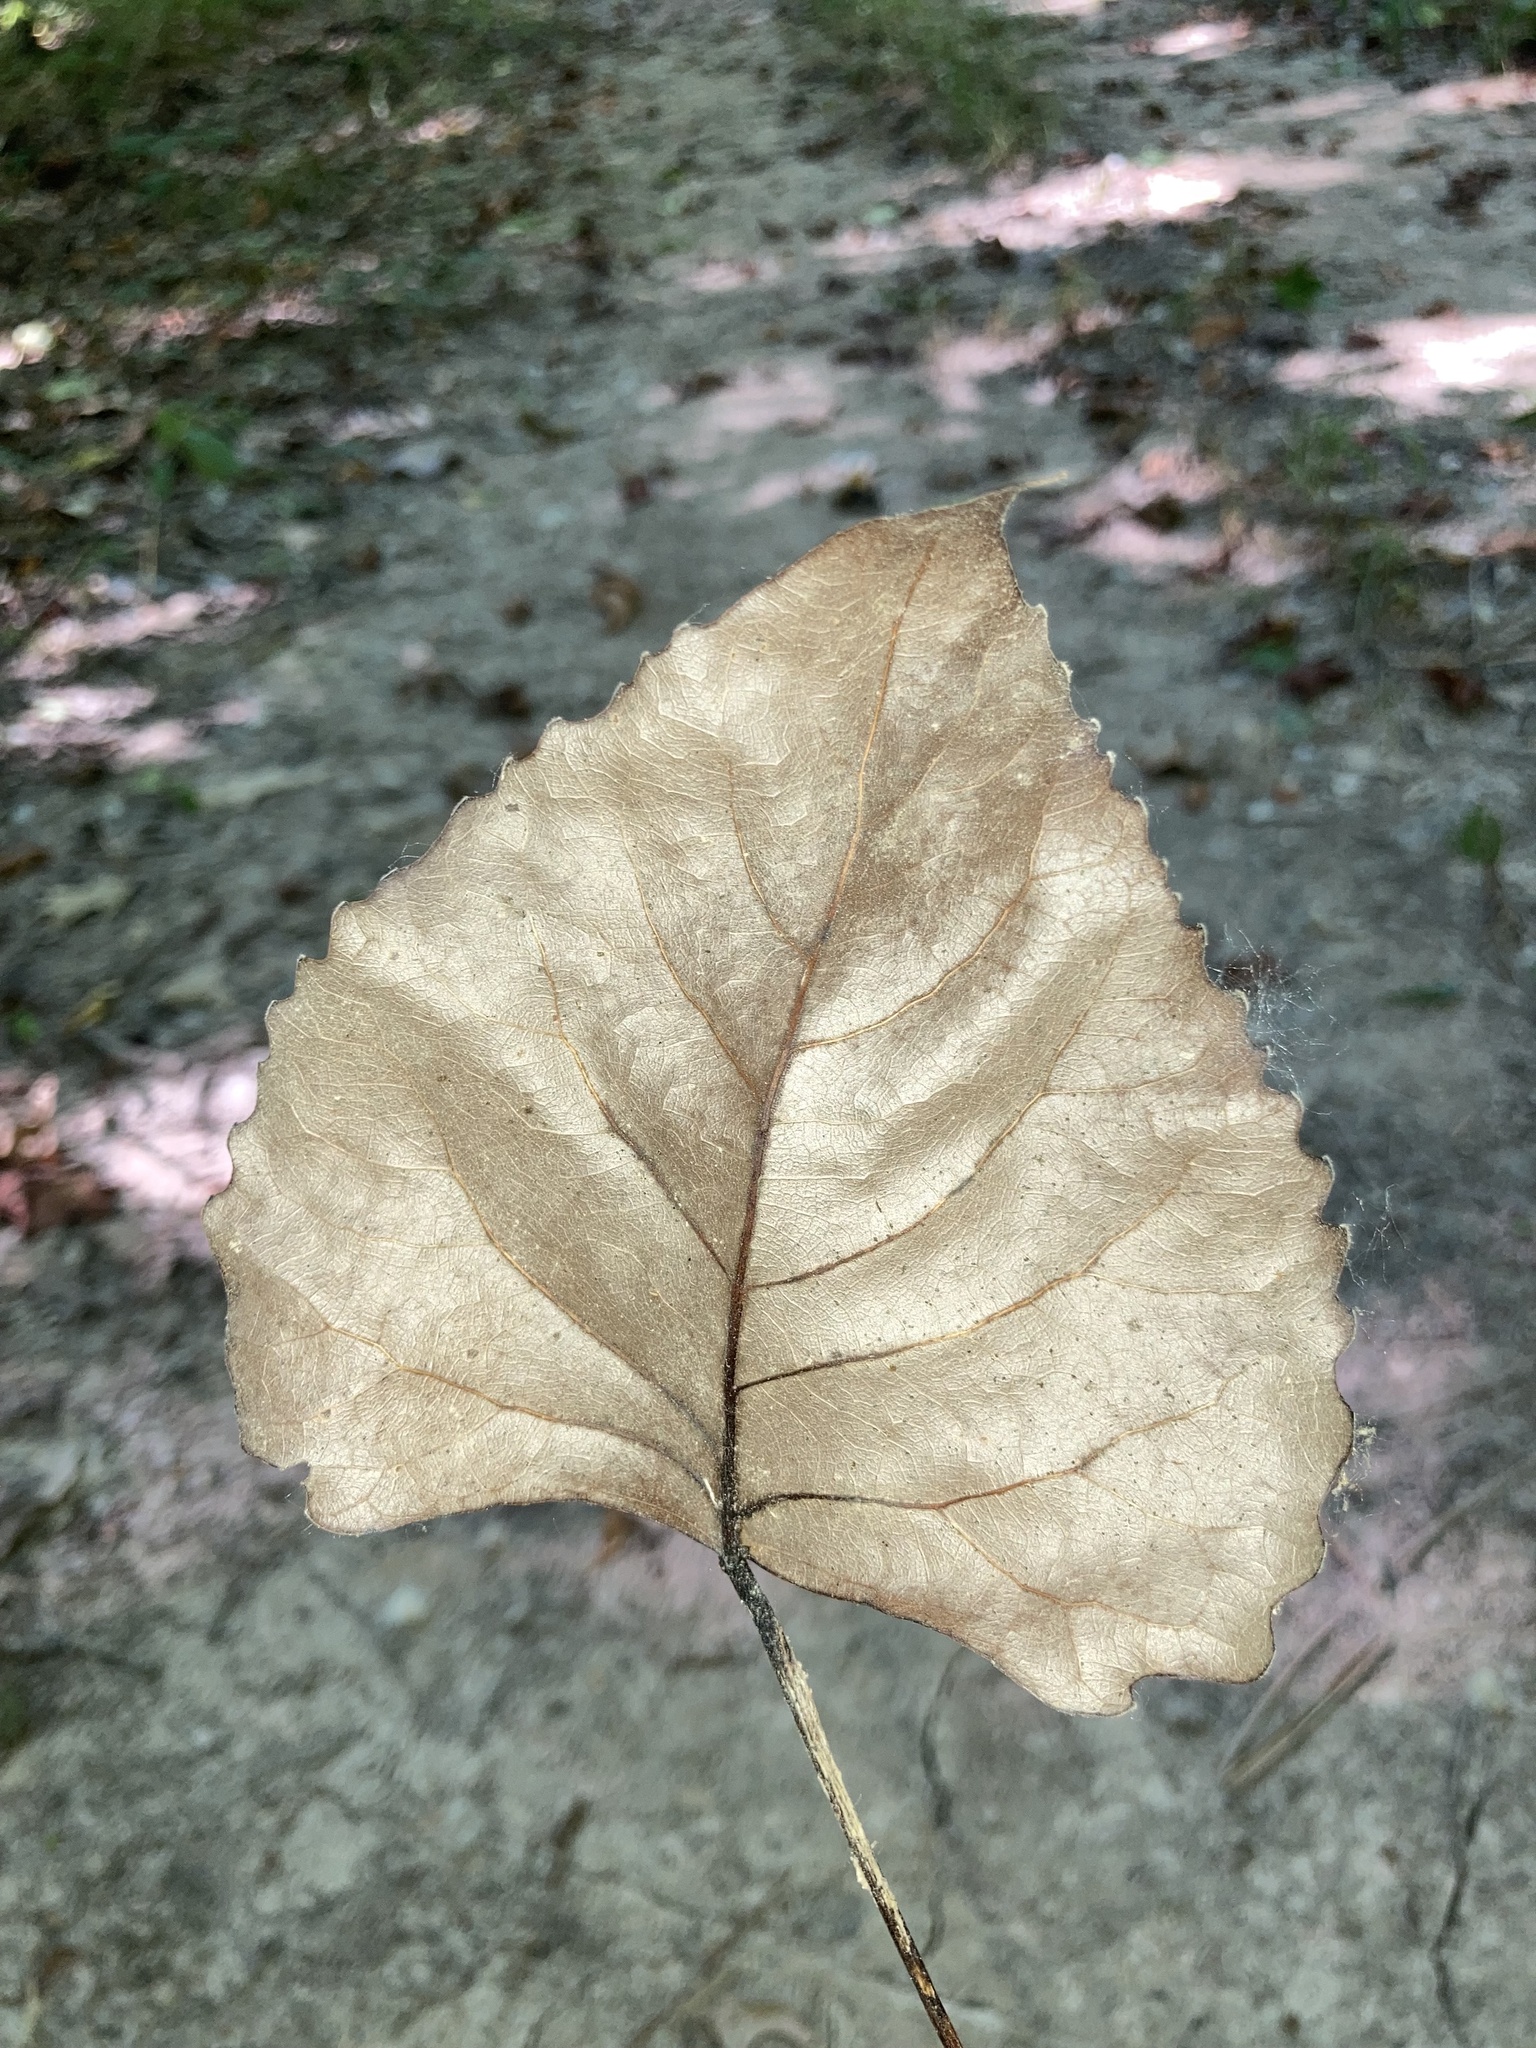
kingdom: Plantae
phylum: Tracheophyta
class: Magnoliopsida
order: Malpighiales
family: Salicaceae
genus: Populus
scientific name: Populus deltoides
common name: Eastern cottonwood
